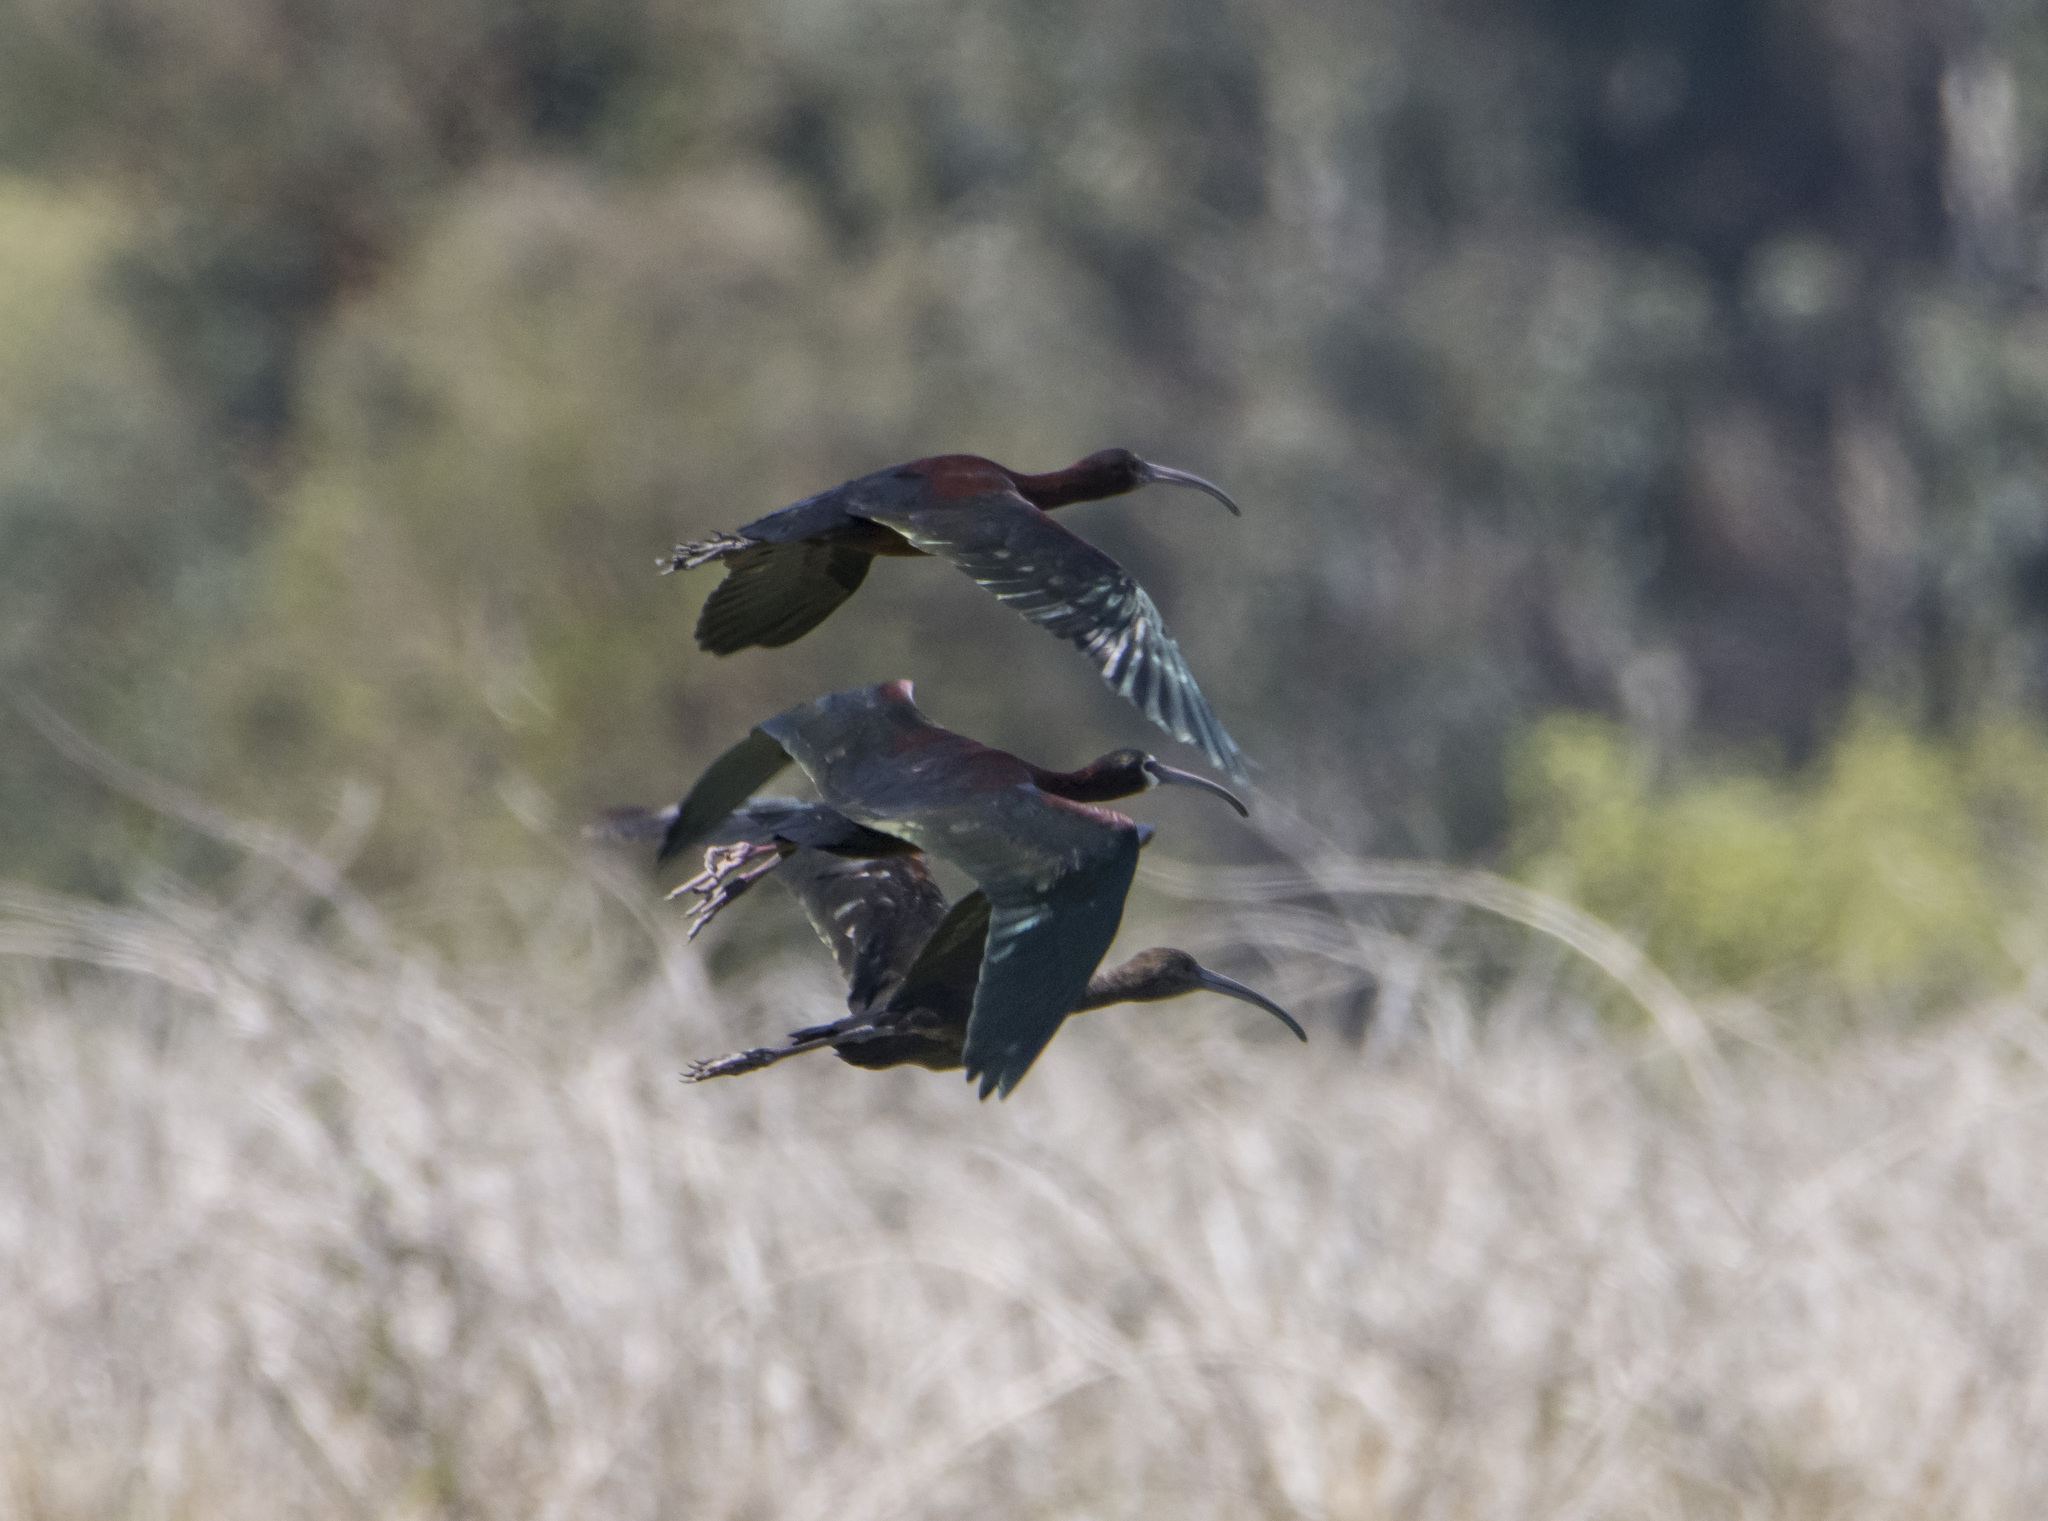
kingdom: Animalia
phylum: Chordata
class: Aves
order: Pelecaniformes
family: Threskiornithidae
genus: Plegadis
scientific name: Plegadis chihi
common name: White-faced ibis
